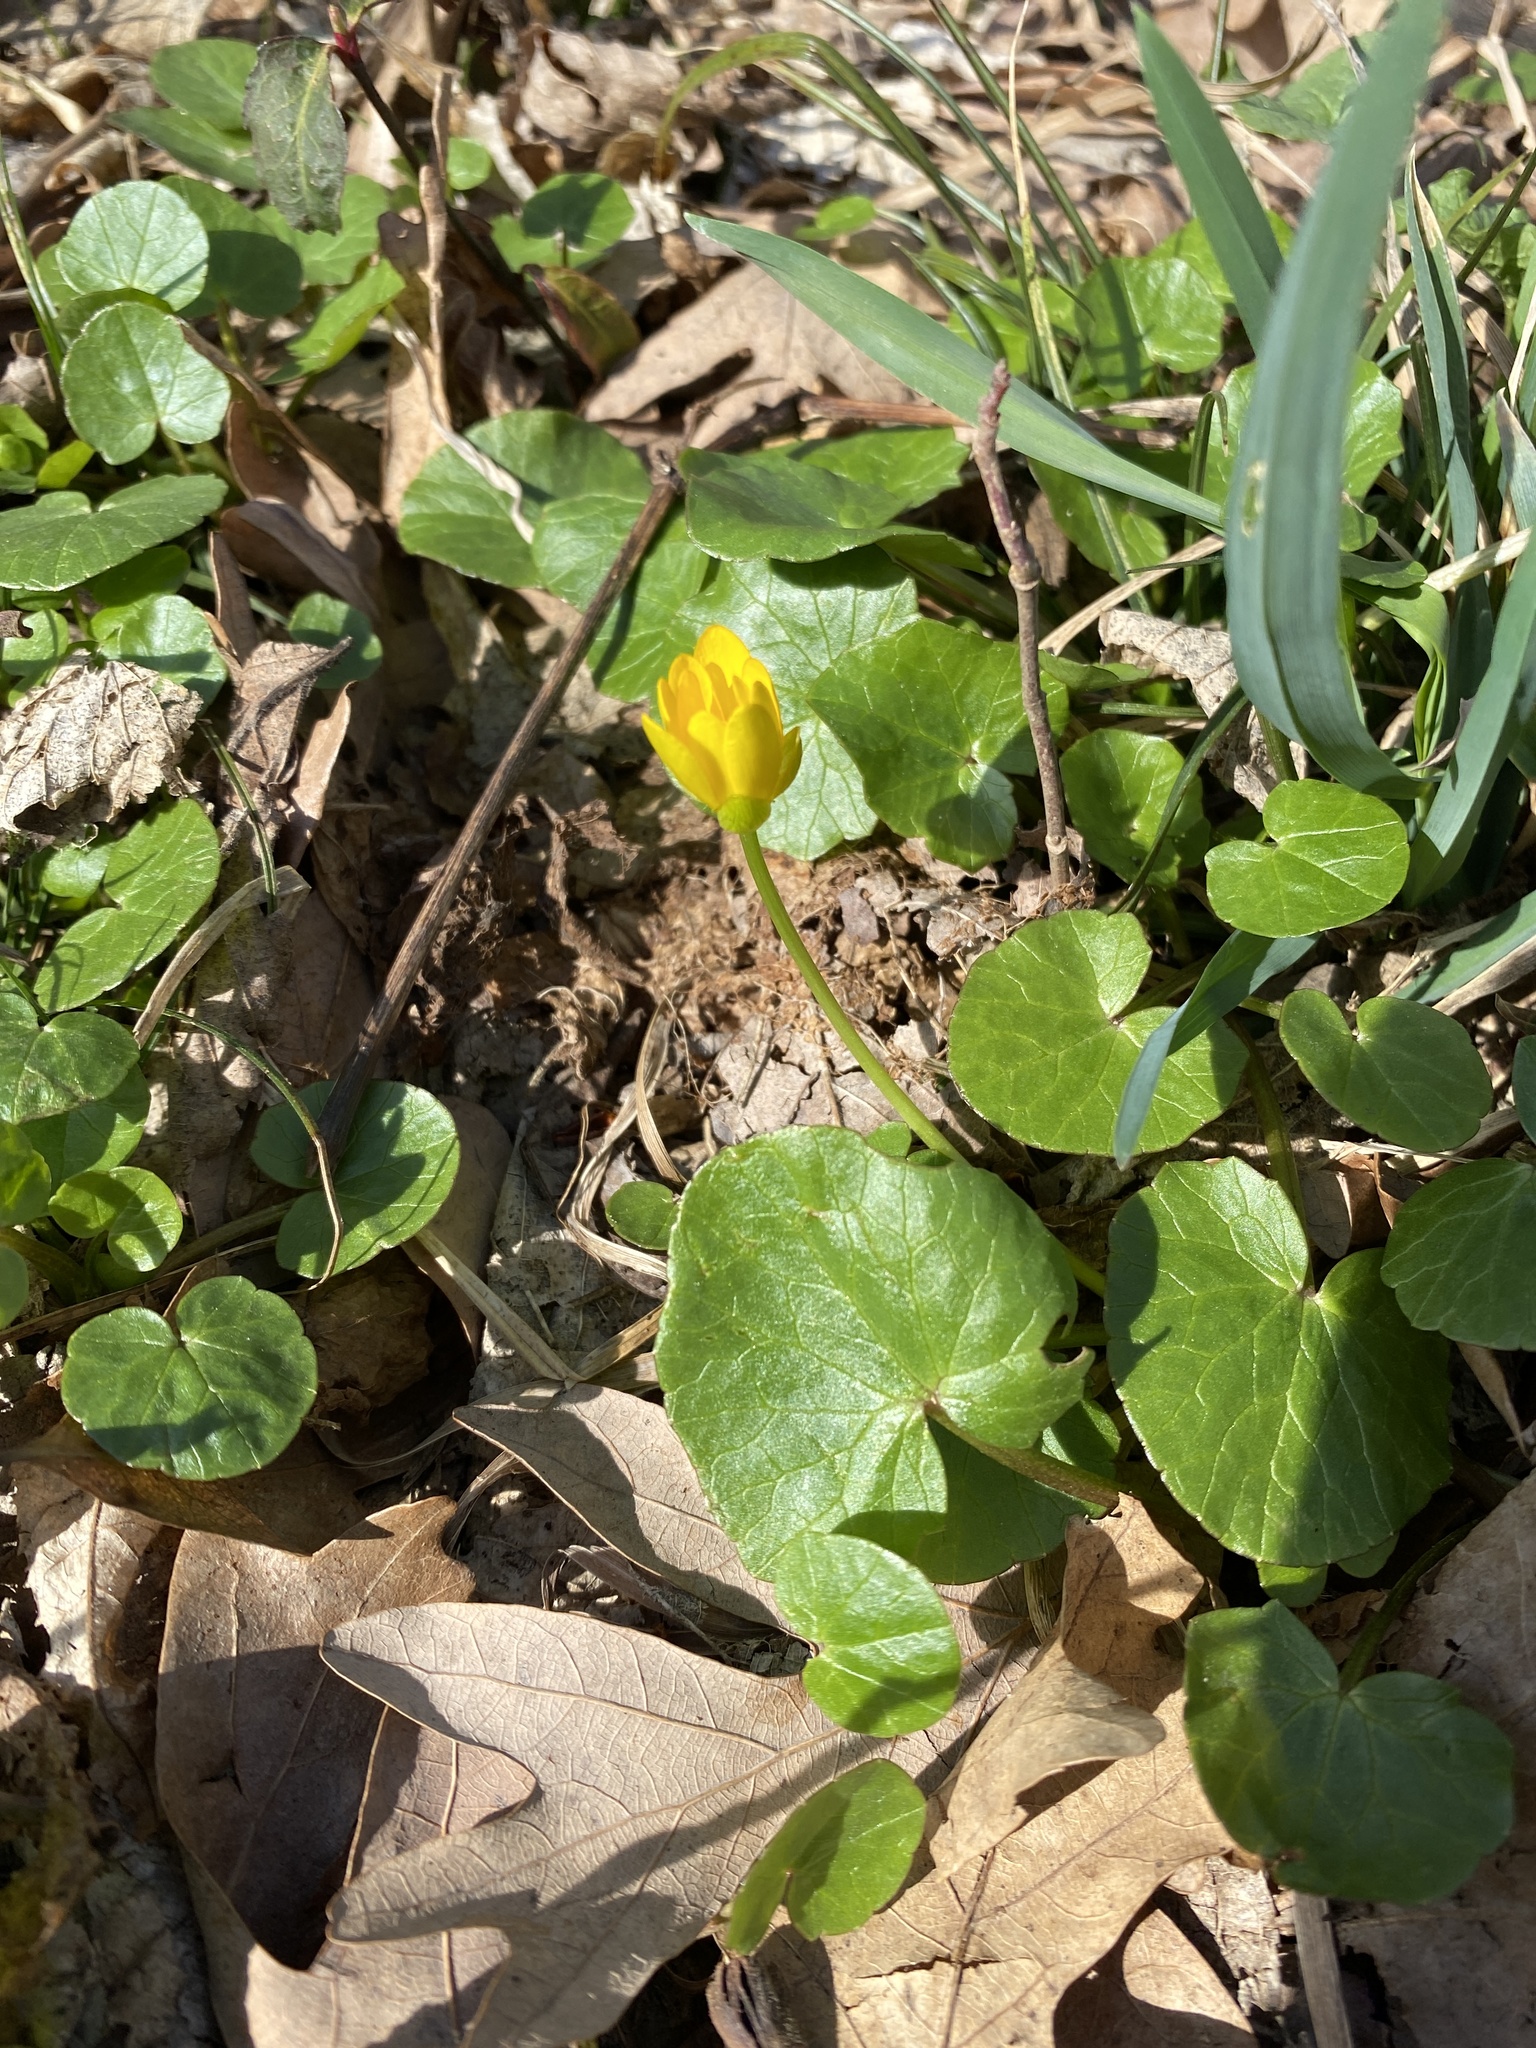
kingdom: Plantae
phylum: Tracheophyta
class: Magnoliopsida
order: Ranunculales
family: Ranunculaceae
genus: Ficaria
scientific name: Ficaria verna
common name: Lesser celandine
